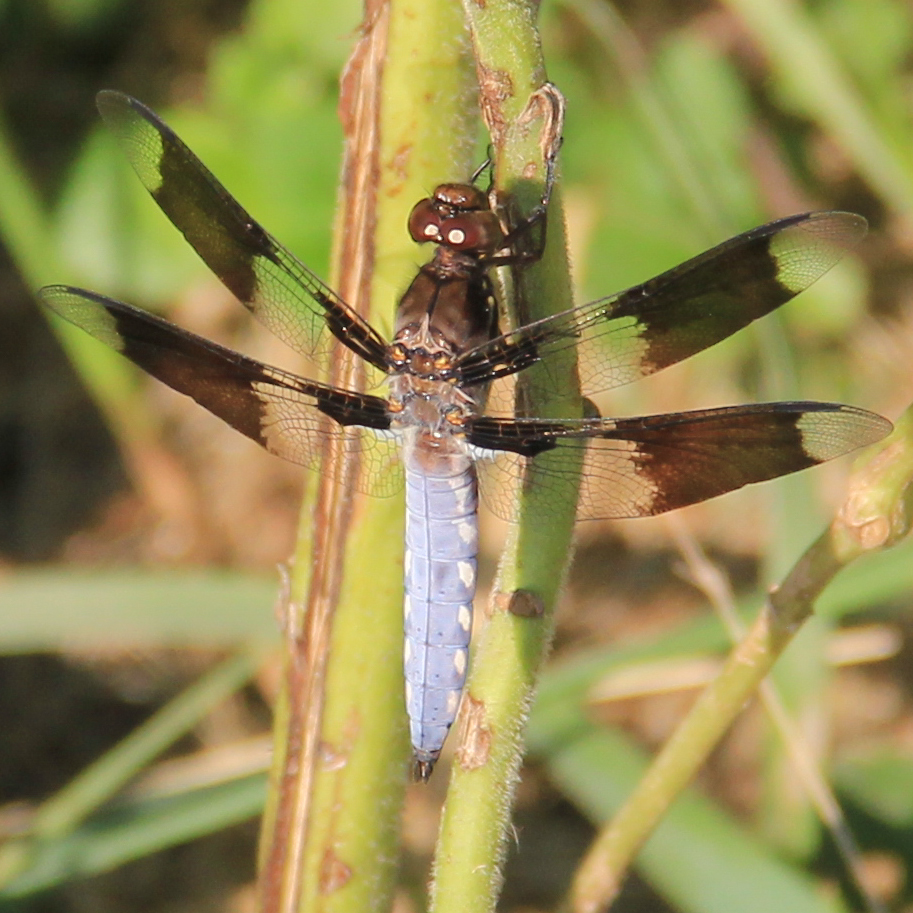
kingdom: Animalia
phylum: Arthropoda
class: Insecta
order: Odonata
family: Libellulidae
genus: Plathemis
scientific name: Plathemis lydia
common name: Common whitetail
